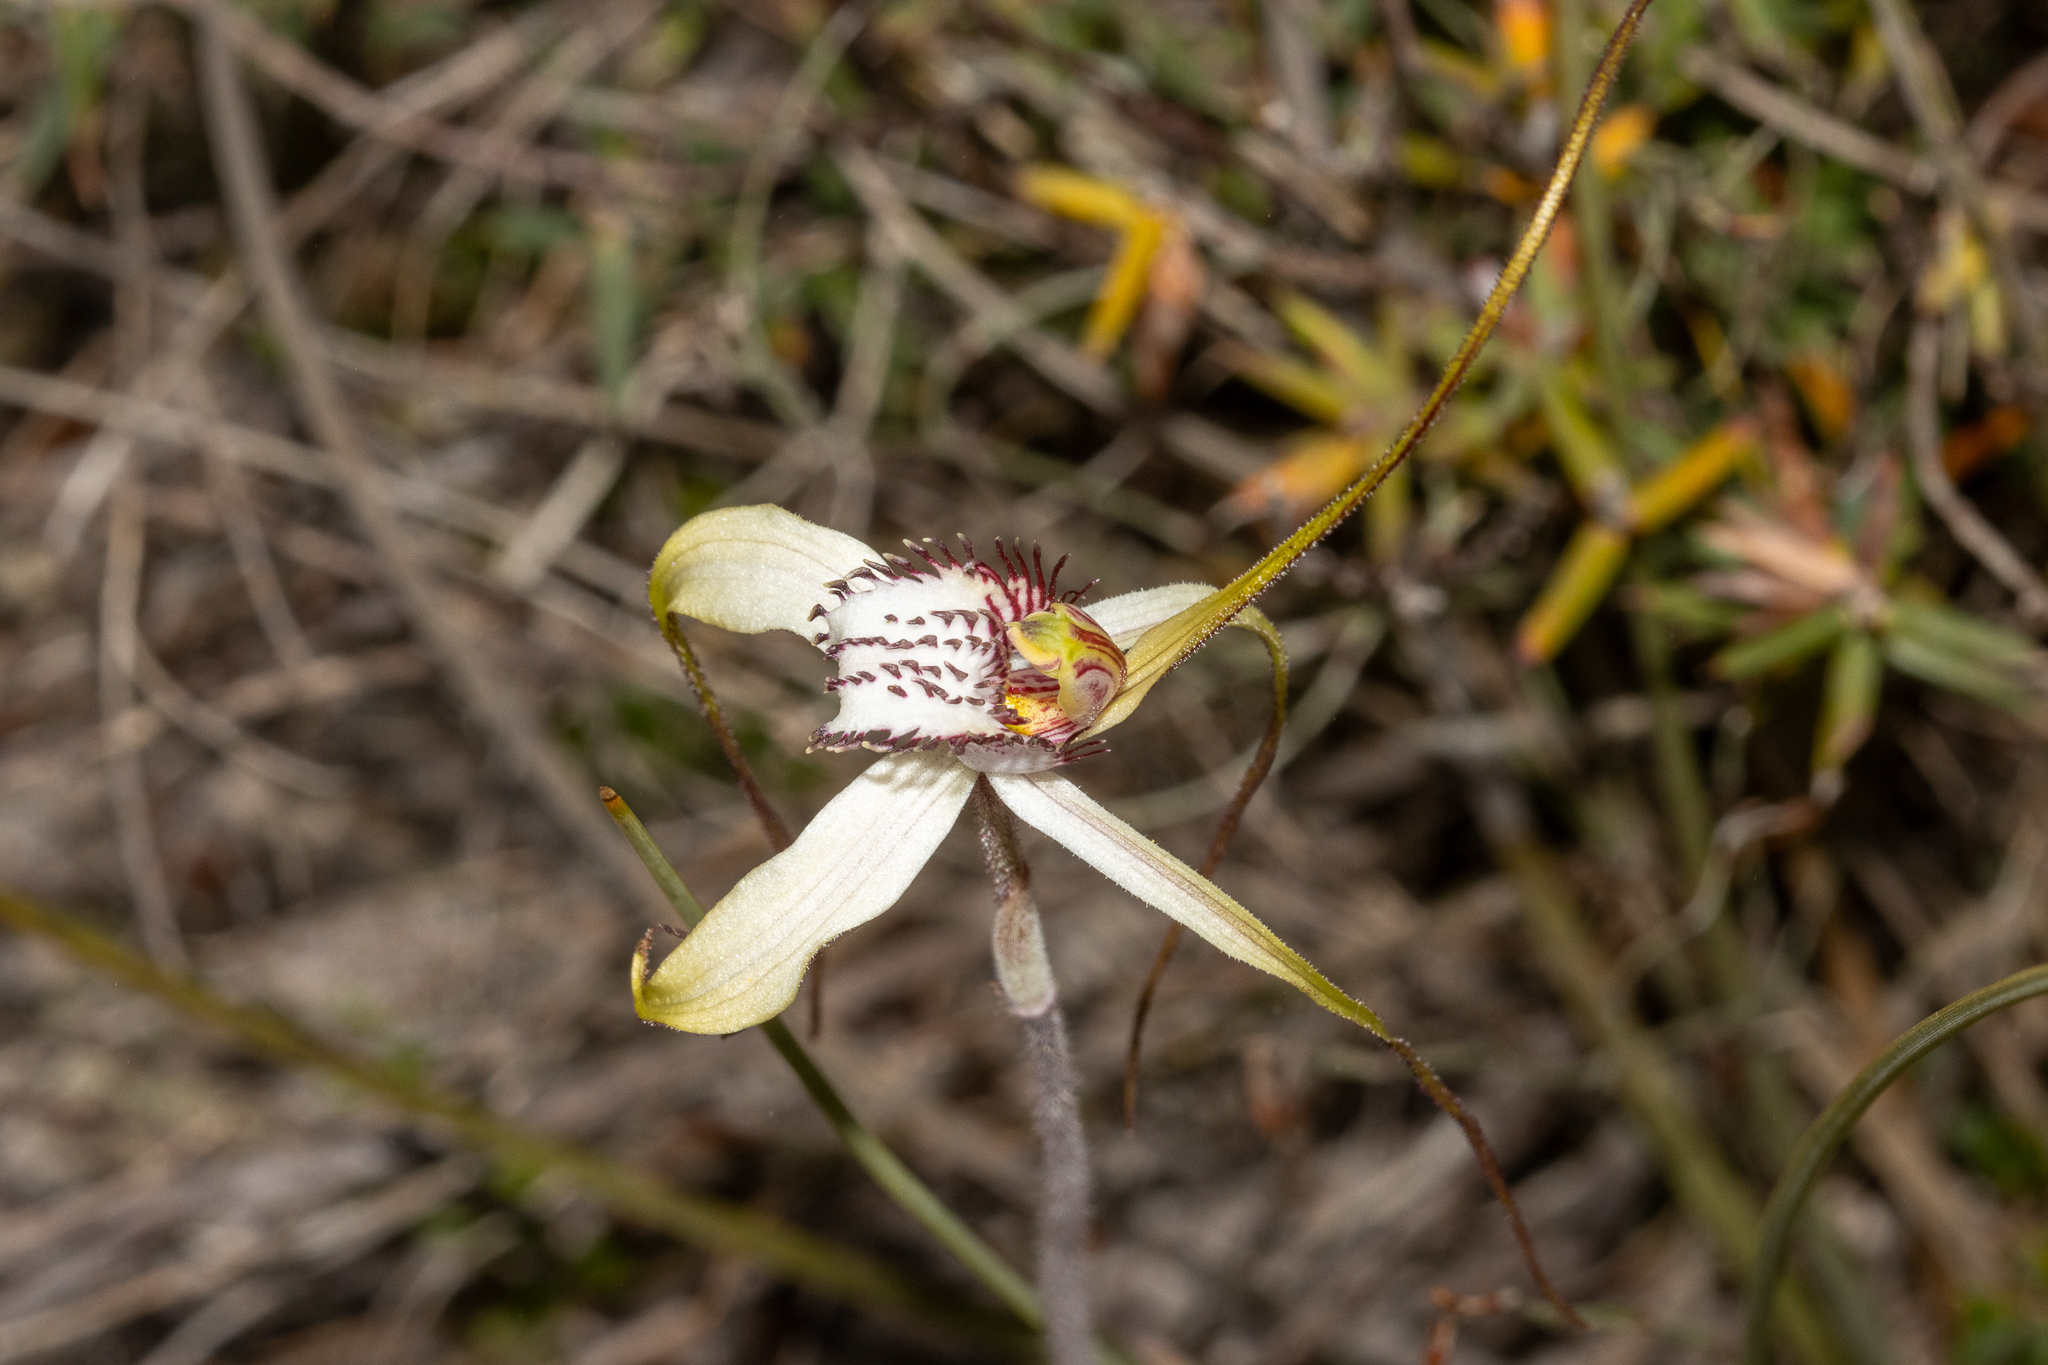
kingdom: Plantae
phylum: Tracheophyta
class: Liliopsida
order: Asparagales
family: Orchidaceae
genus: Caladenia
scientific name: Caladenia venusta
